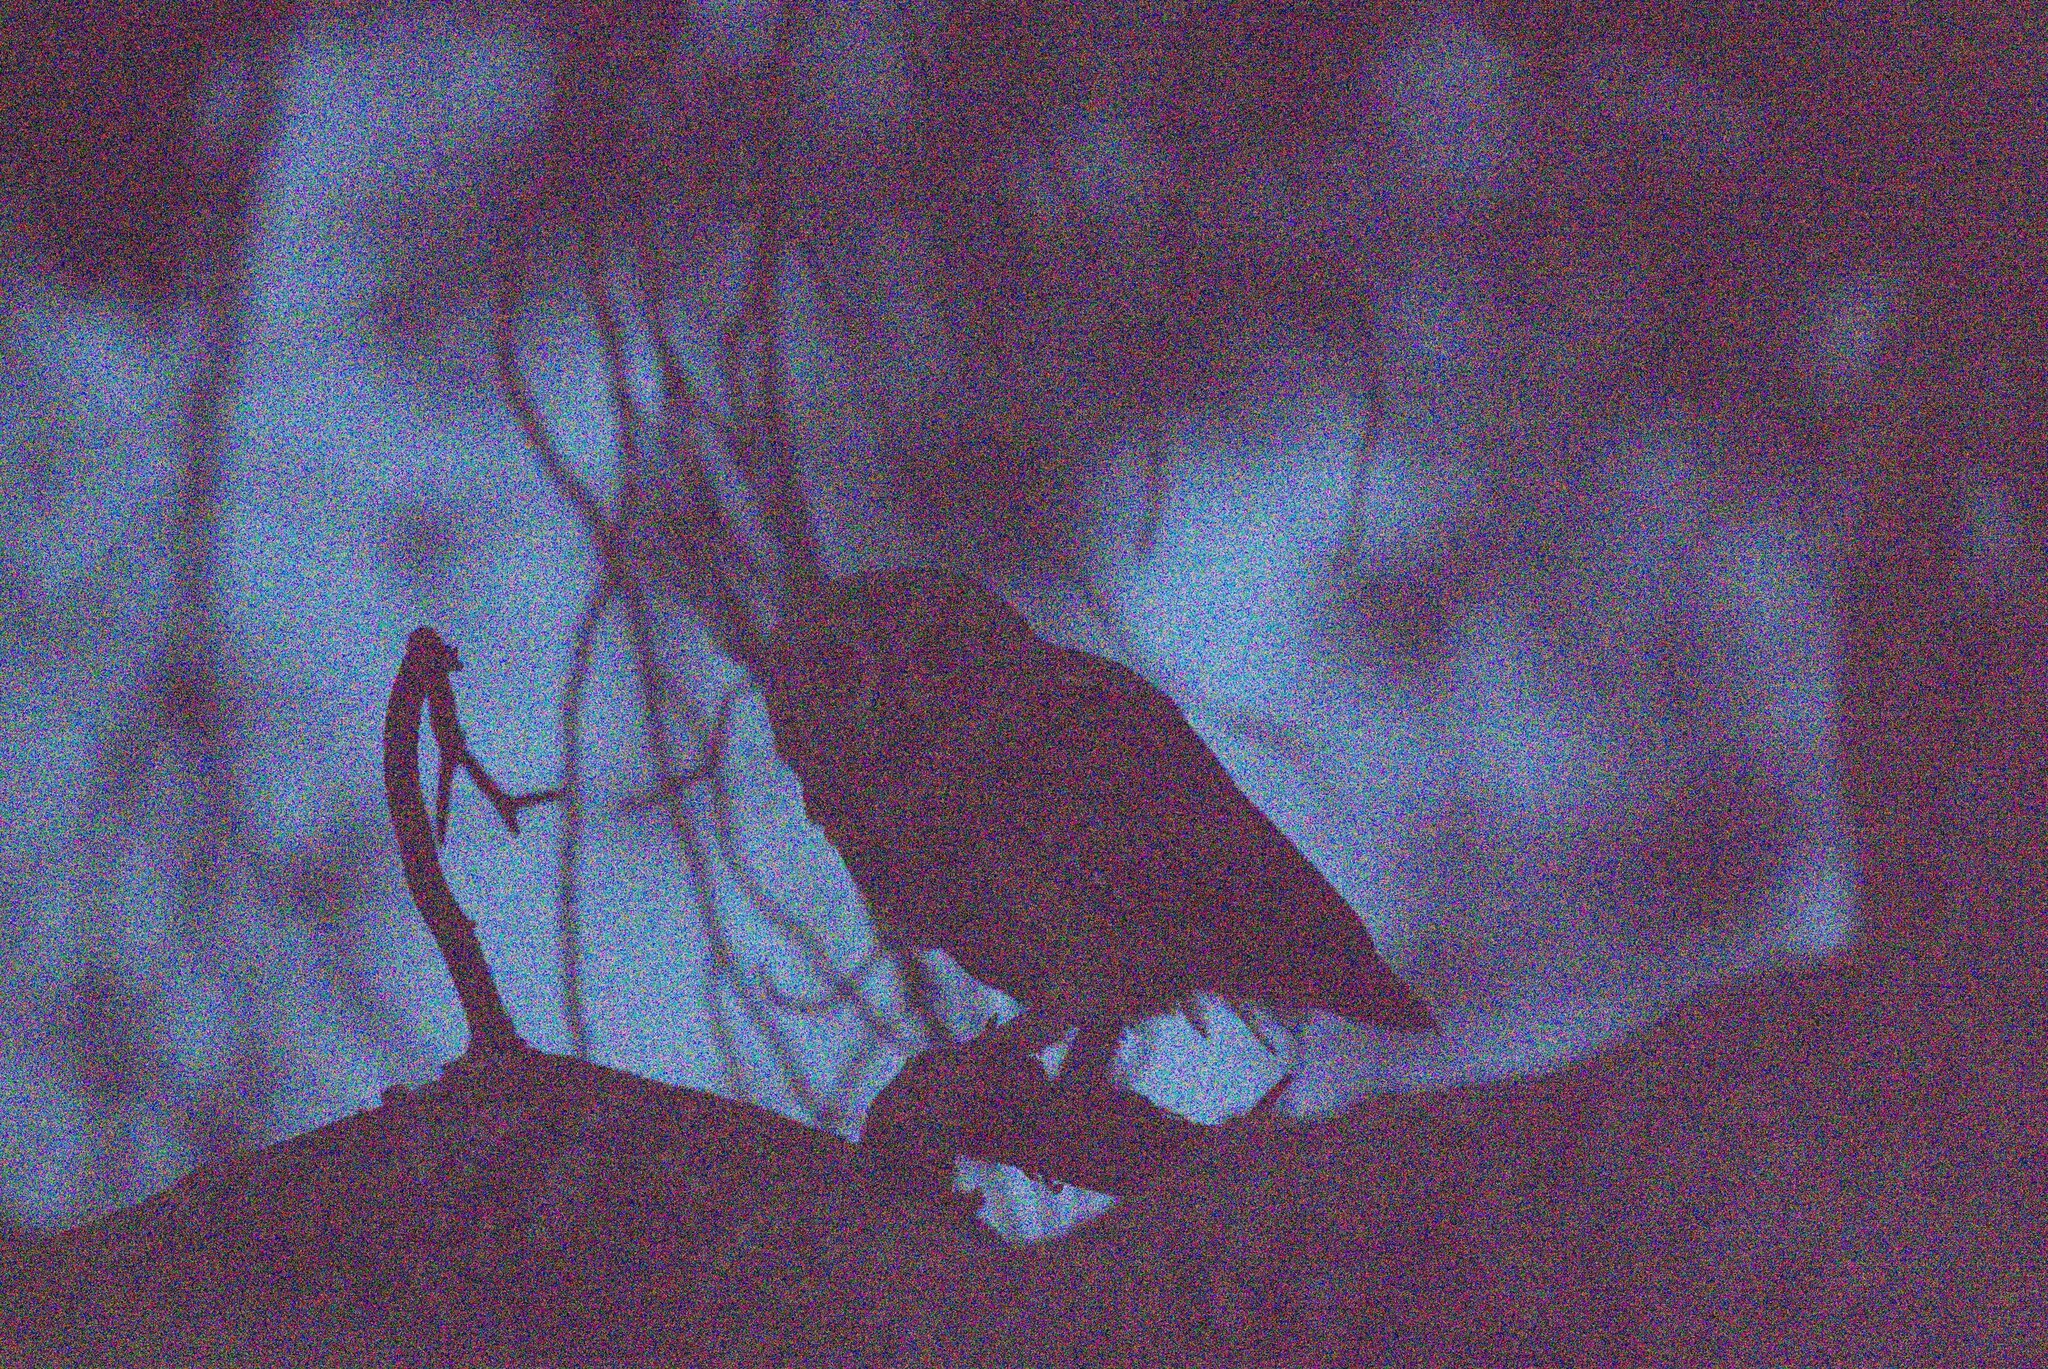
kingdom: Animalia
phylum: Chordata
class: Aves
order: Strigiformes
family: Strigidae
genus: Otus
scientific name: Otus scops
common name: Eurasian scops owl
